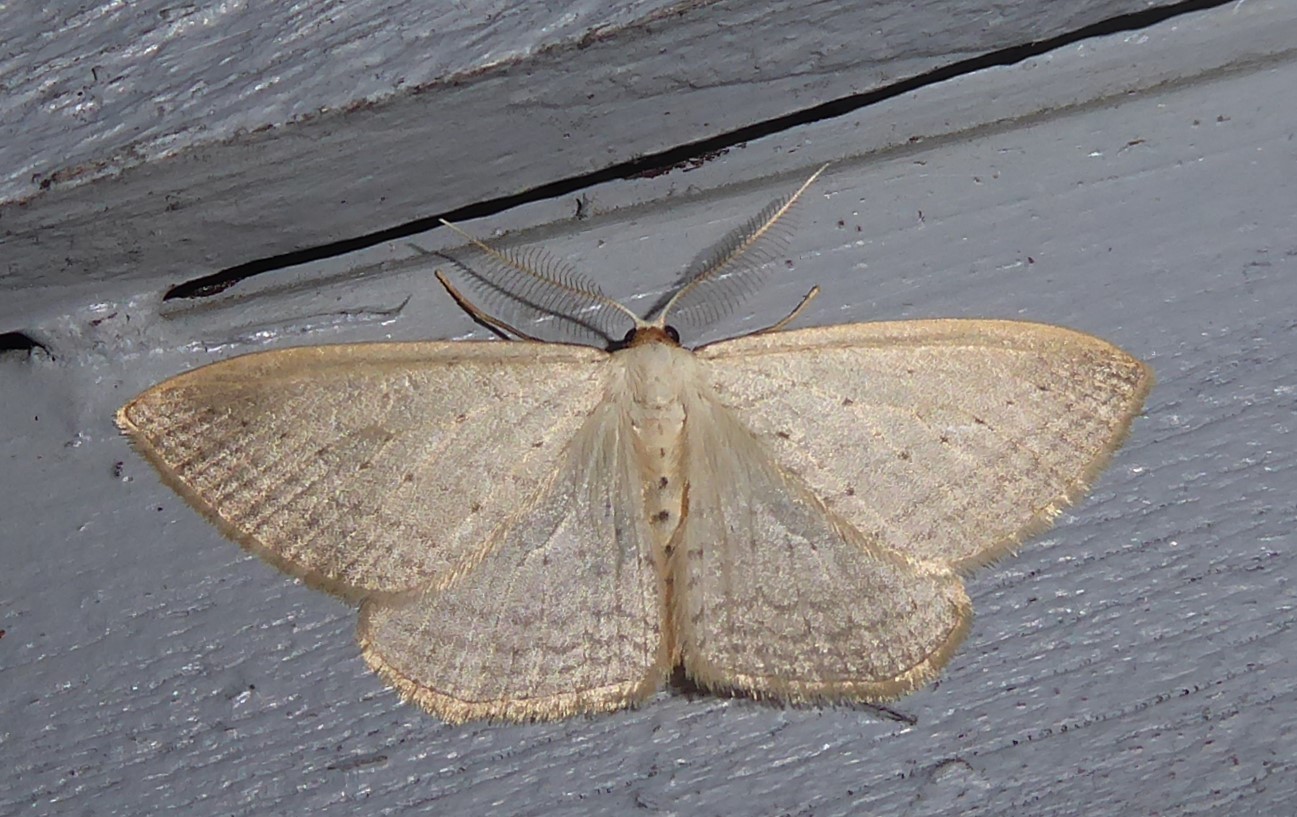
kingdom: Animalia
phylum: Arthropoda
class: Insecta
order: Lepidoptera
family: Geometridae
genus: Orthoclydon
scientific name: Orthoclydon praefectata
